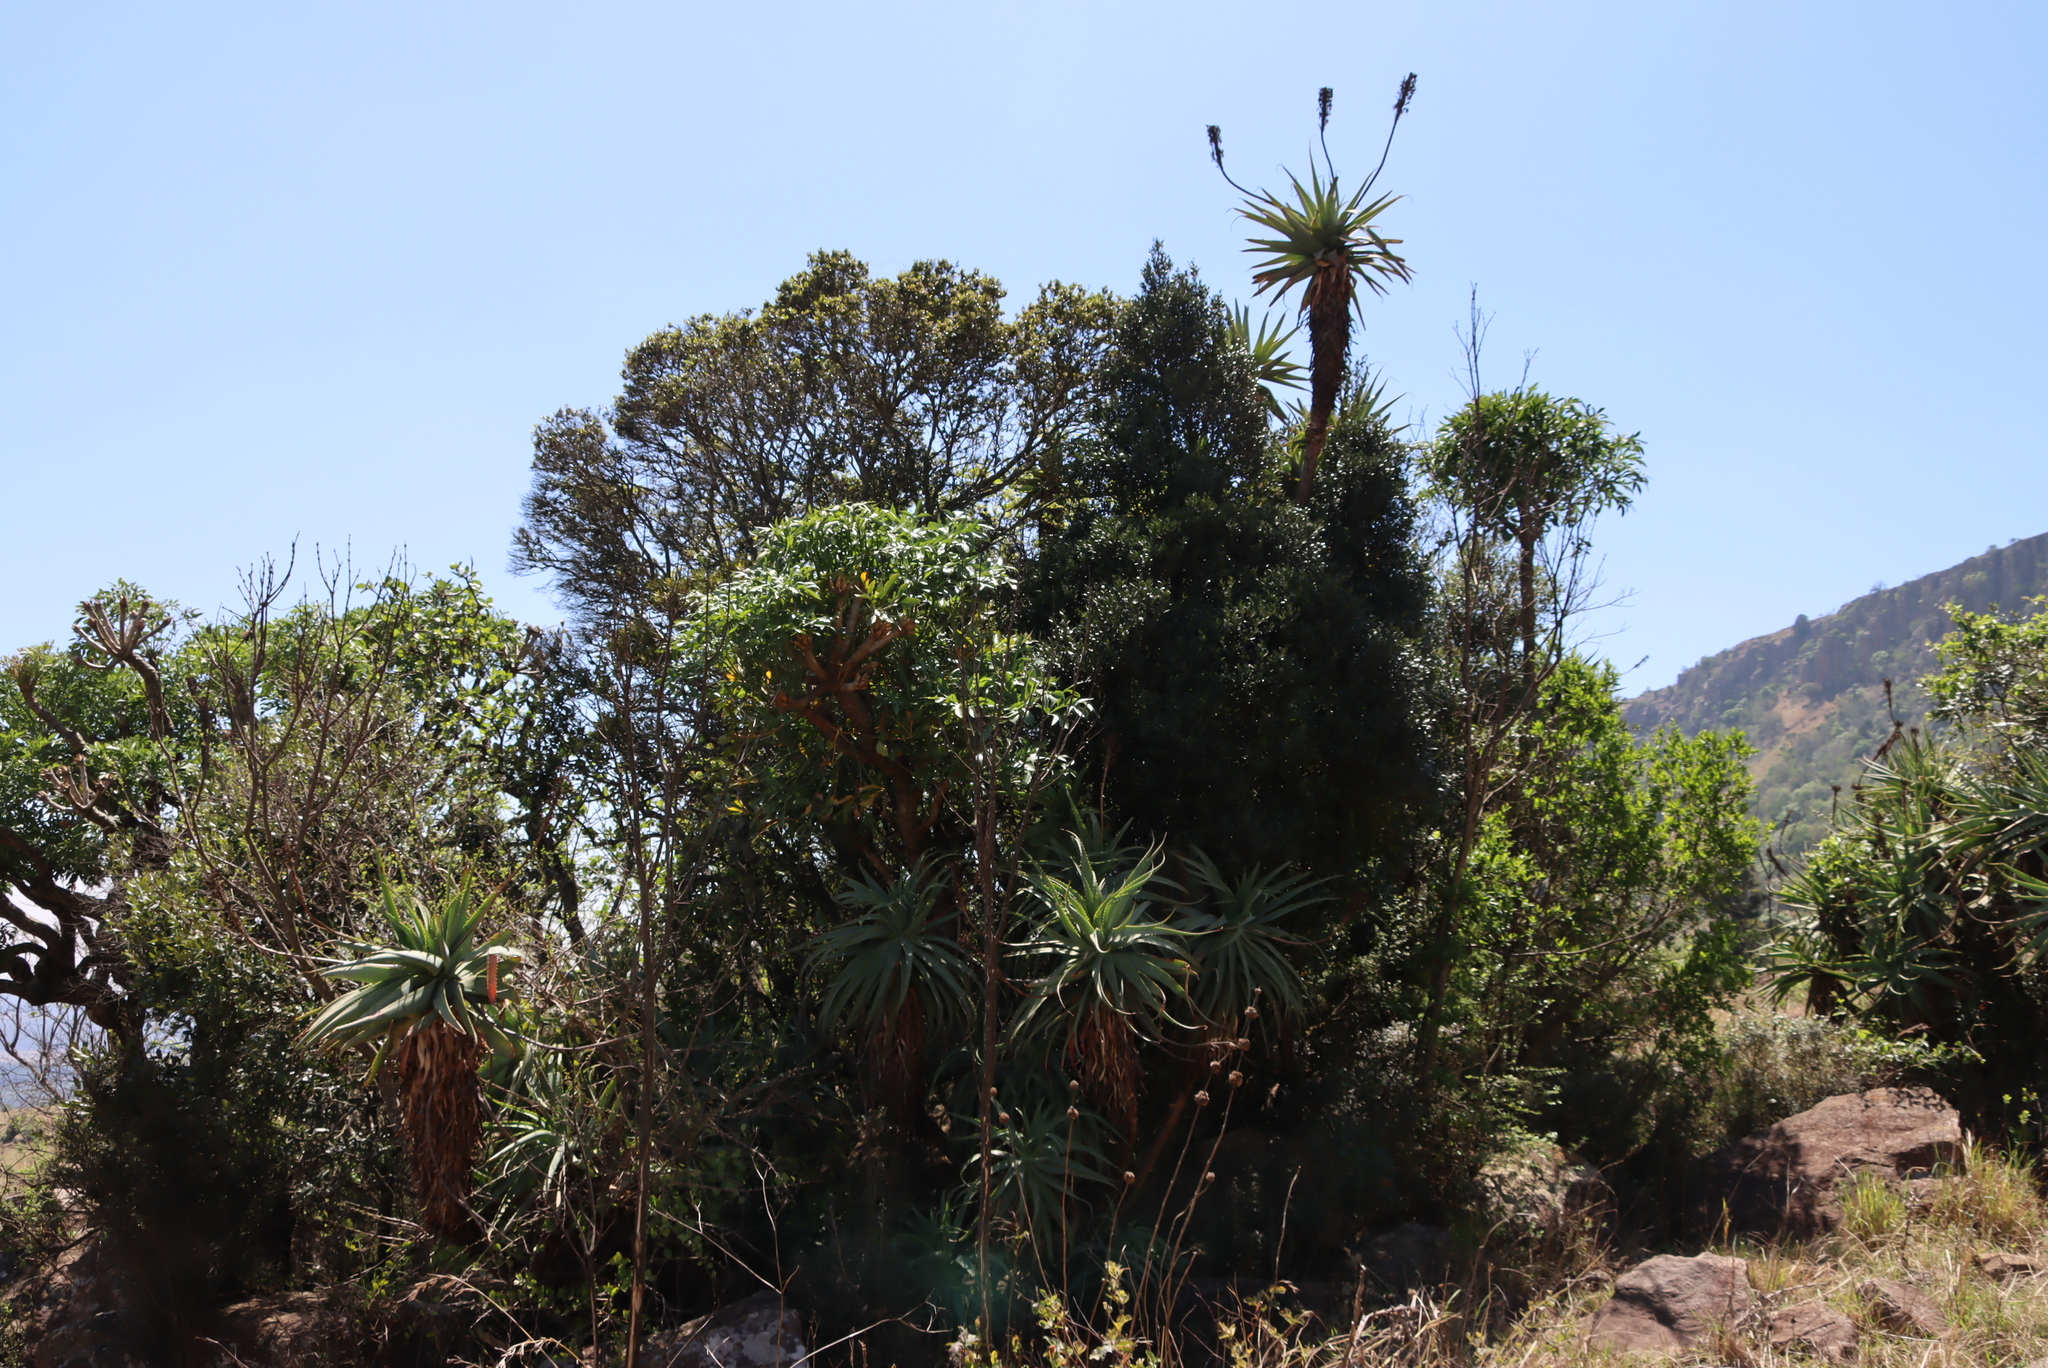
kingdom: Plantae
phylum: Tracheophyta
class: Magnoliopsida
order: Malvales
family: Thymelaeaceae
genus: Dais
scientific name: Dais cotinifolia
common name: Pompon tree
